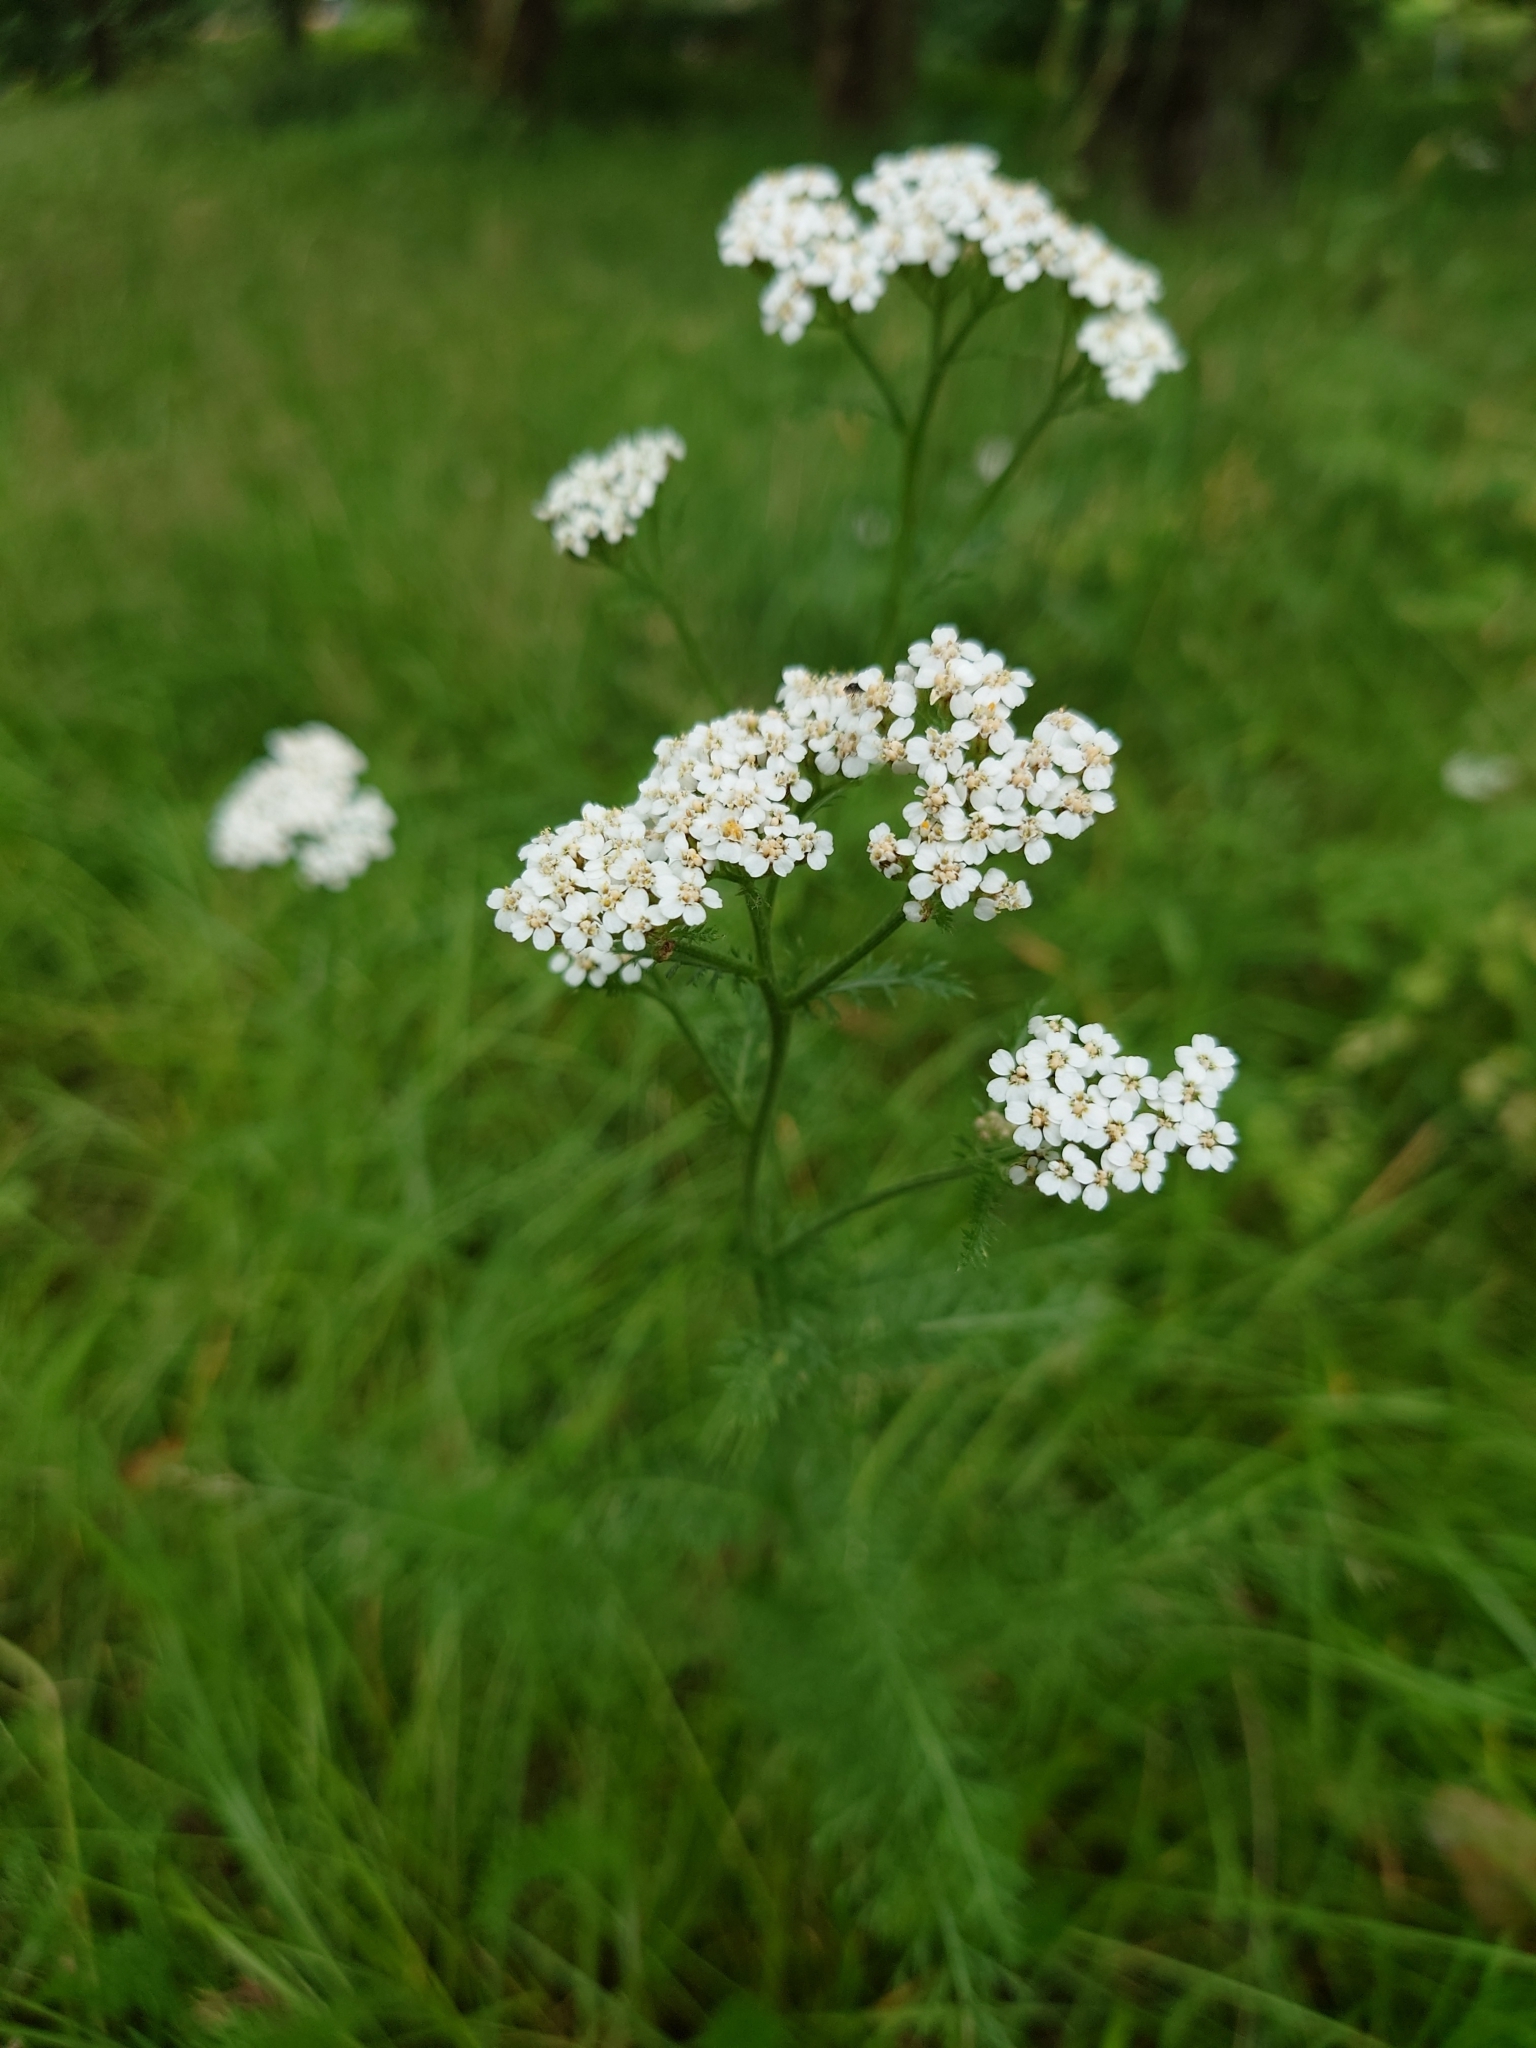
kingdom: Plantae
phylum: Tracheophyta
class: Magnoliopsida
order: Asterales
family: Asteraceae
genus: Achillea
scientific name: Achillea millefolium
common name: Yarrow
